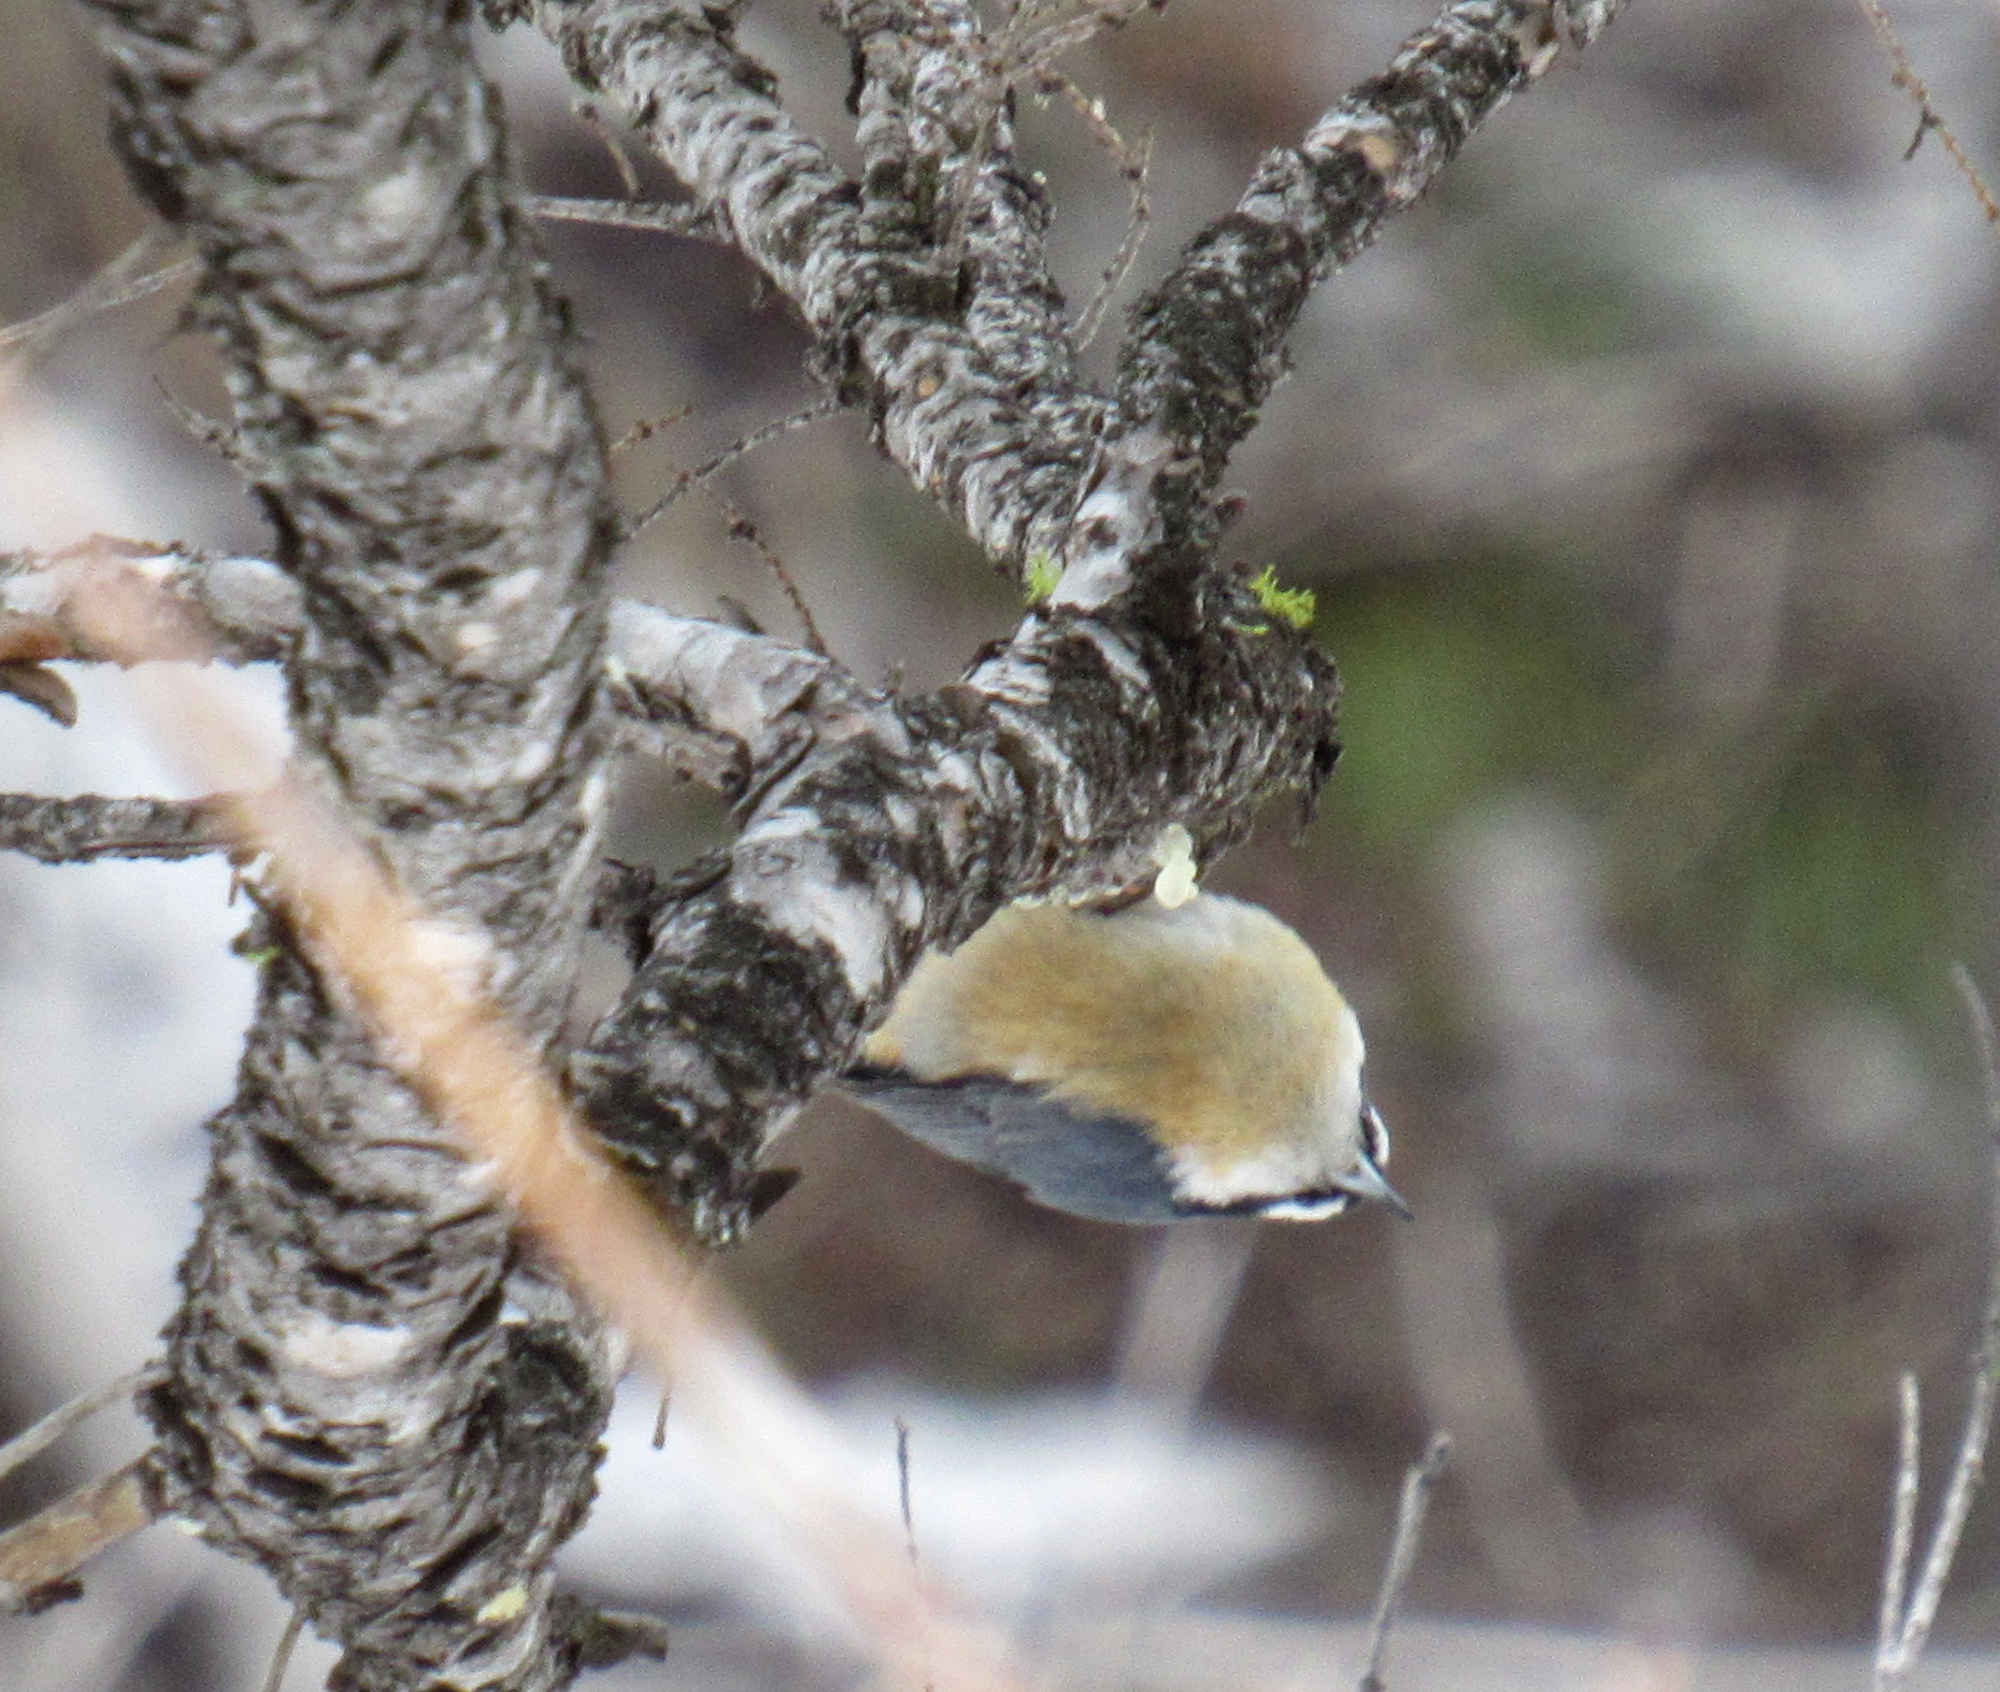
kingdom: Animalia
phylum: Chordata
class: Aves
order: Passeriformes
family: Sittidae
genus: Sitta
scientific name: Sitta canadensis
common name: Red-breasted nuthatch
